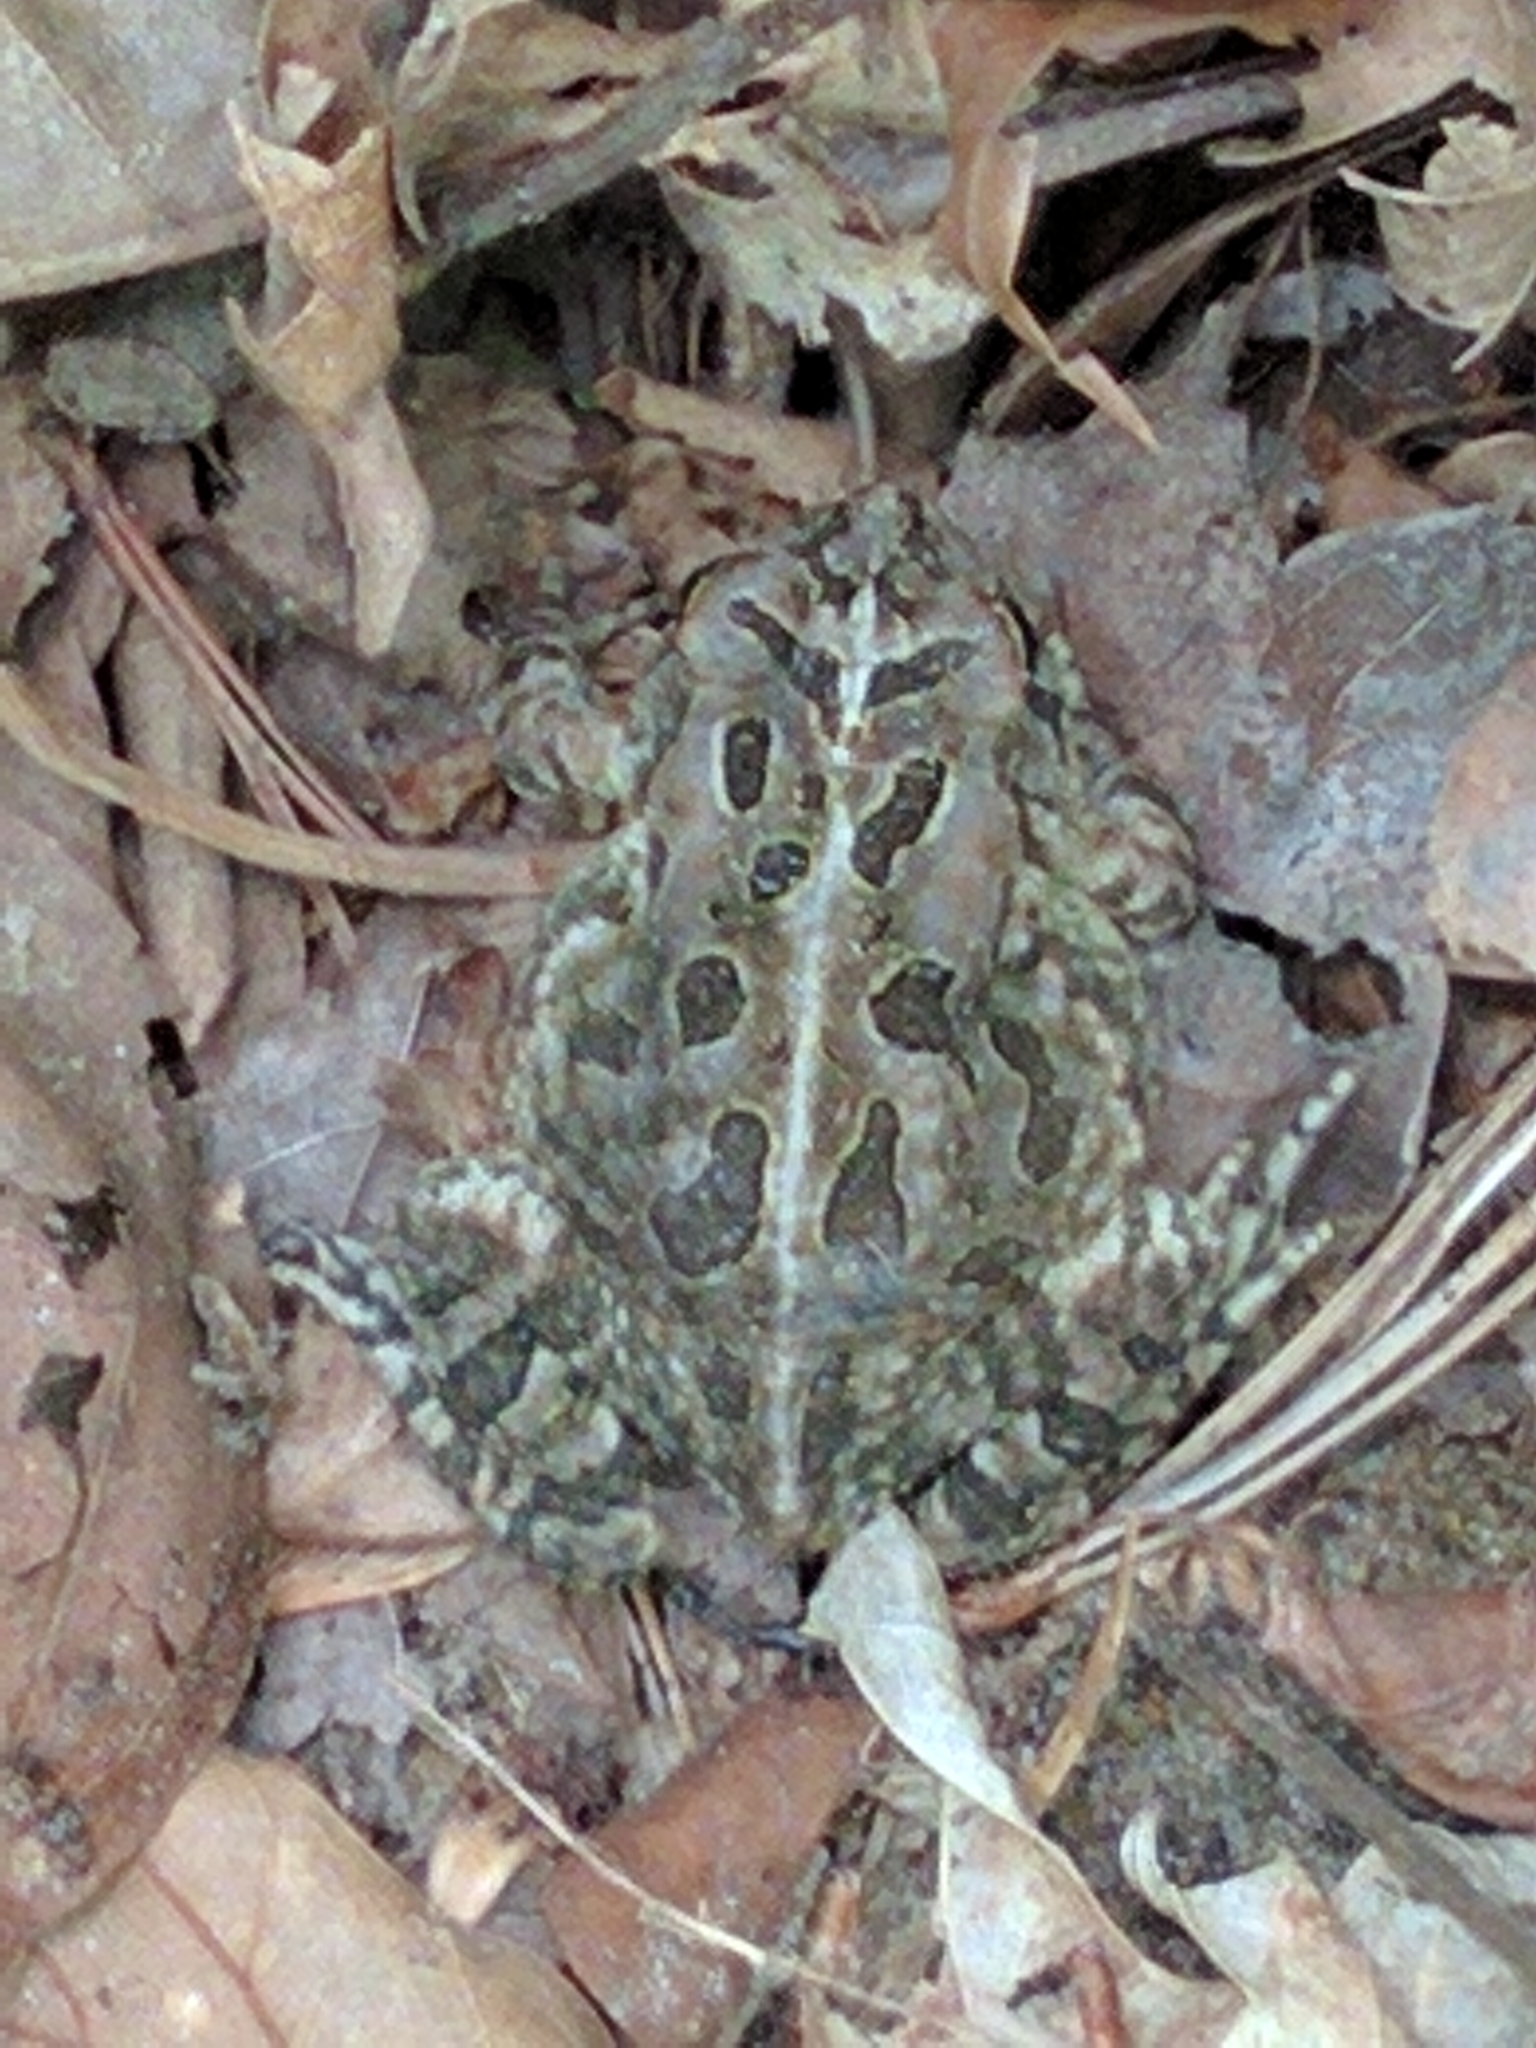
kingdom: Animalia
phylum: Chordata
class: Amphibia
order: Anura
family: Bufonidae
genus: Anaxyrus
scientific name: Anaxyrus fowleri
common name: Fowler's toad
